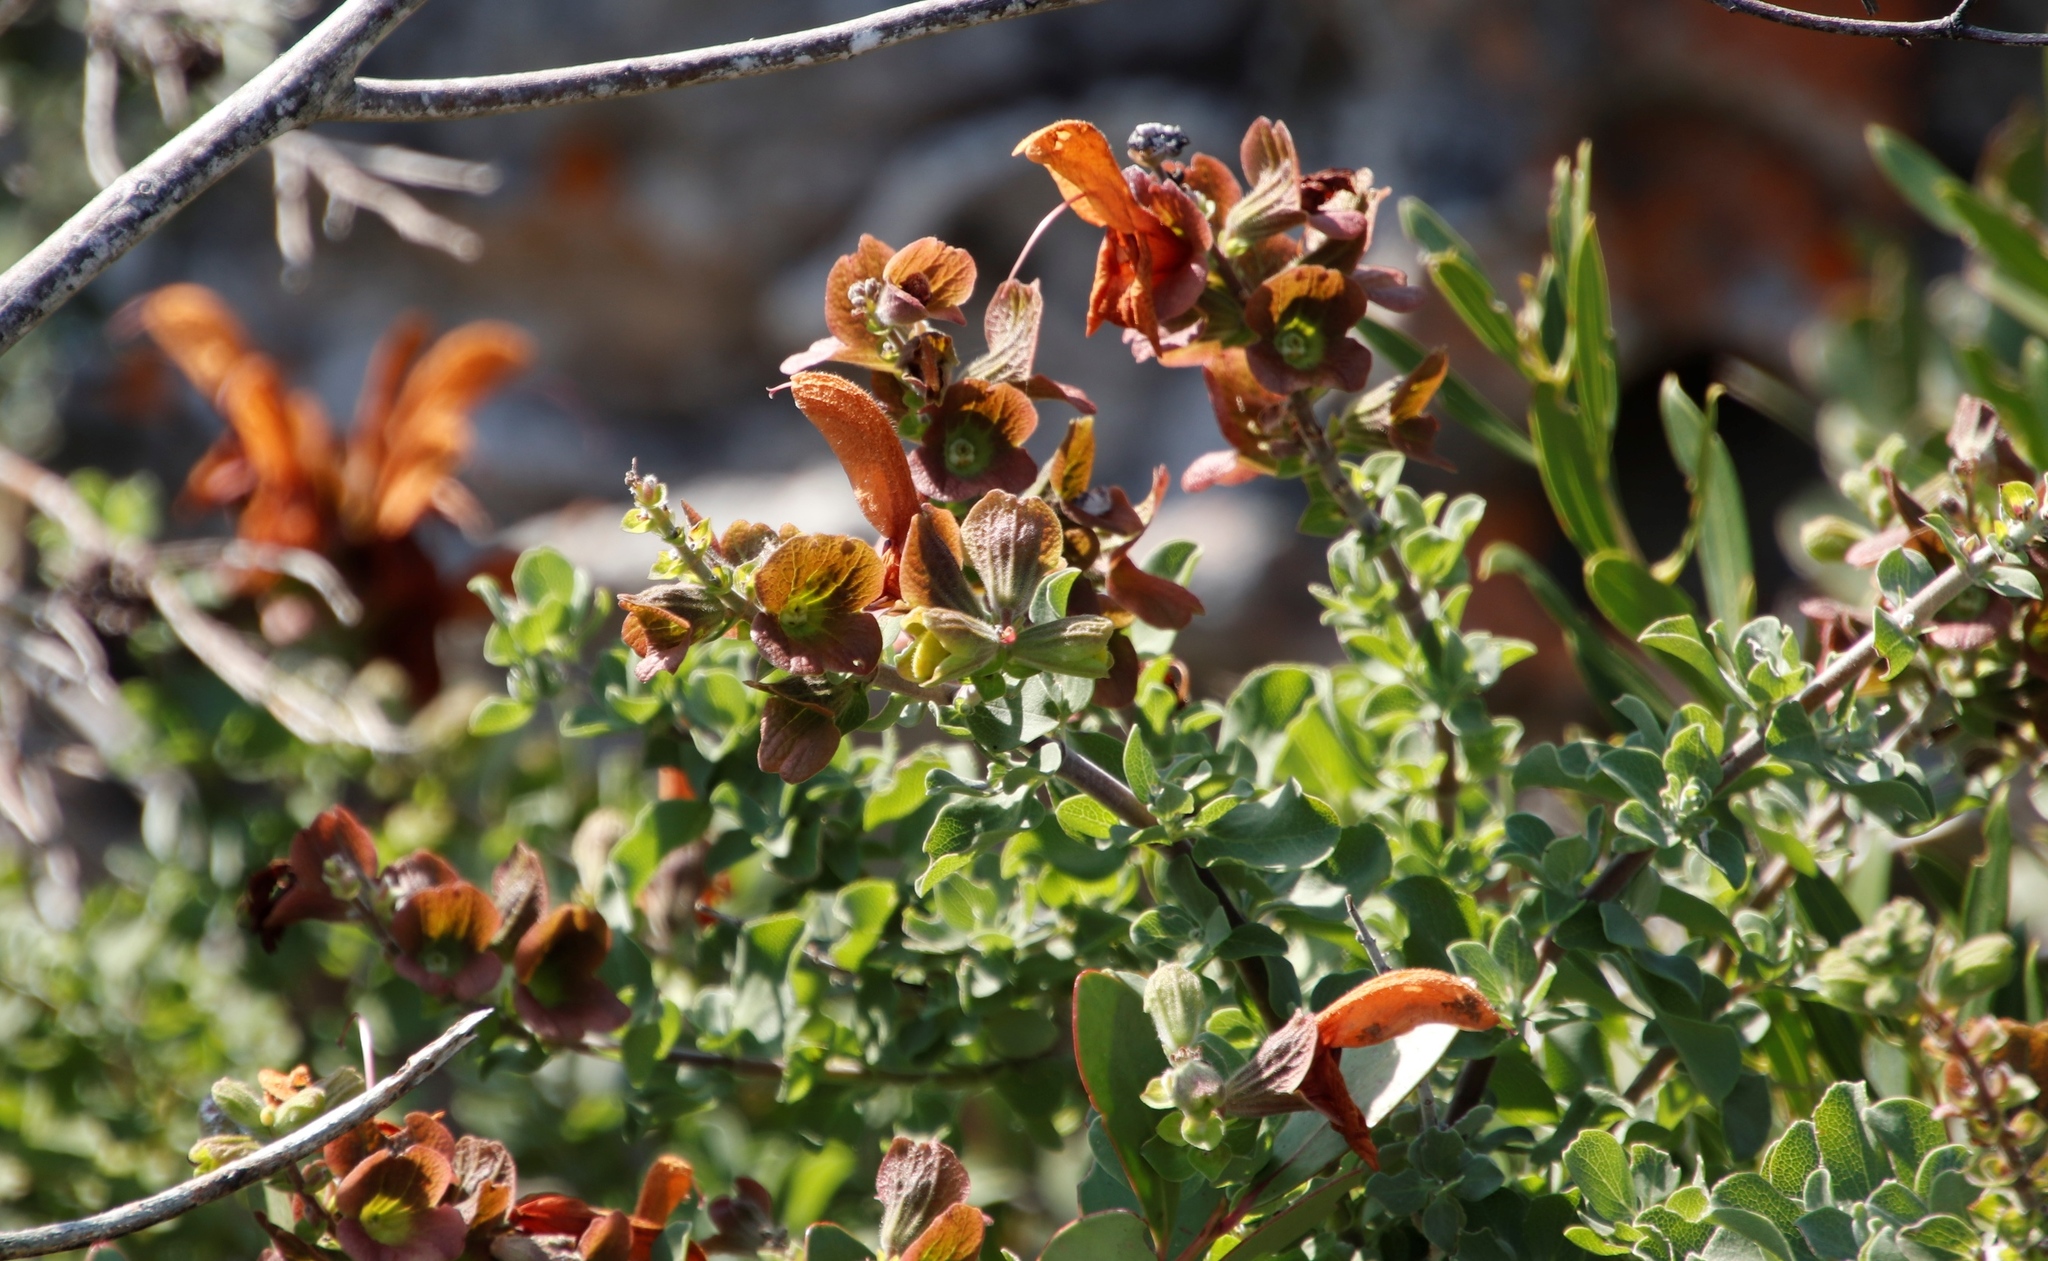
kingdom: Plantae
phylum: Tracheophyta
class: Magnoliopsida
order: Lamiales
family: Lamiaceae
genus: Salvia
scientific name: Salvia aurea
